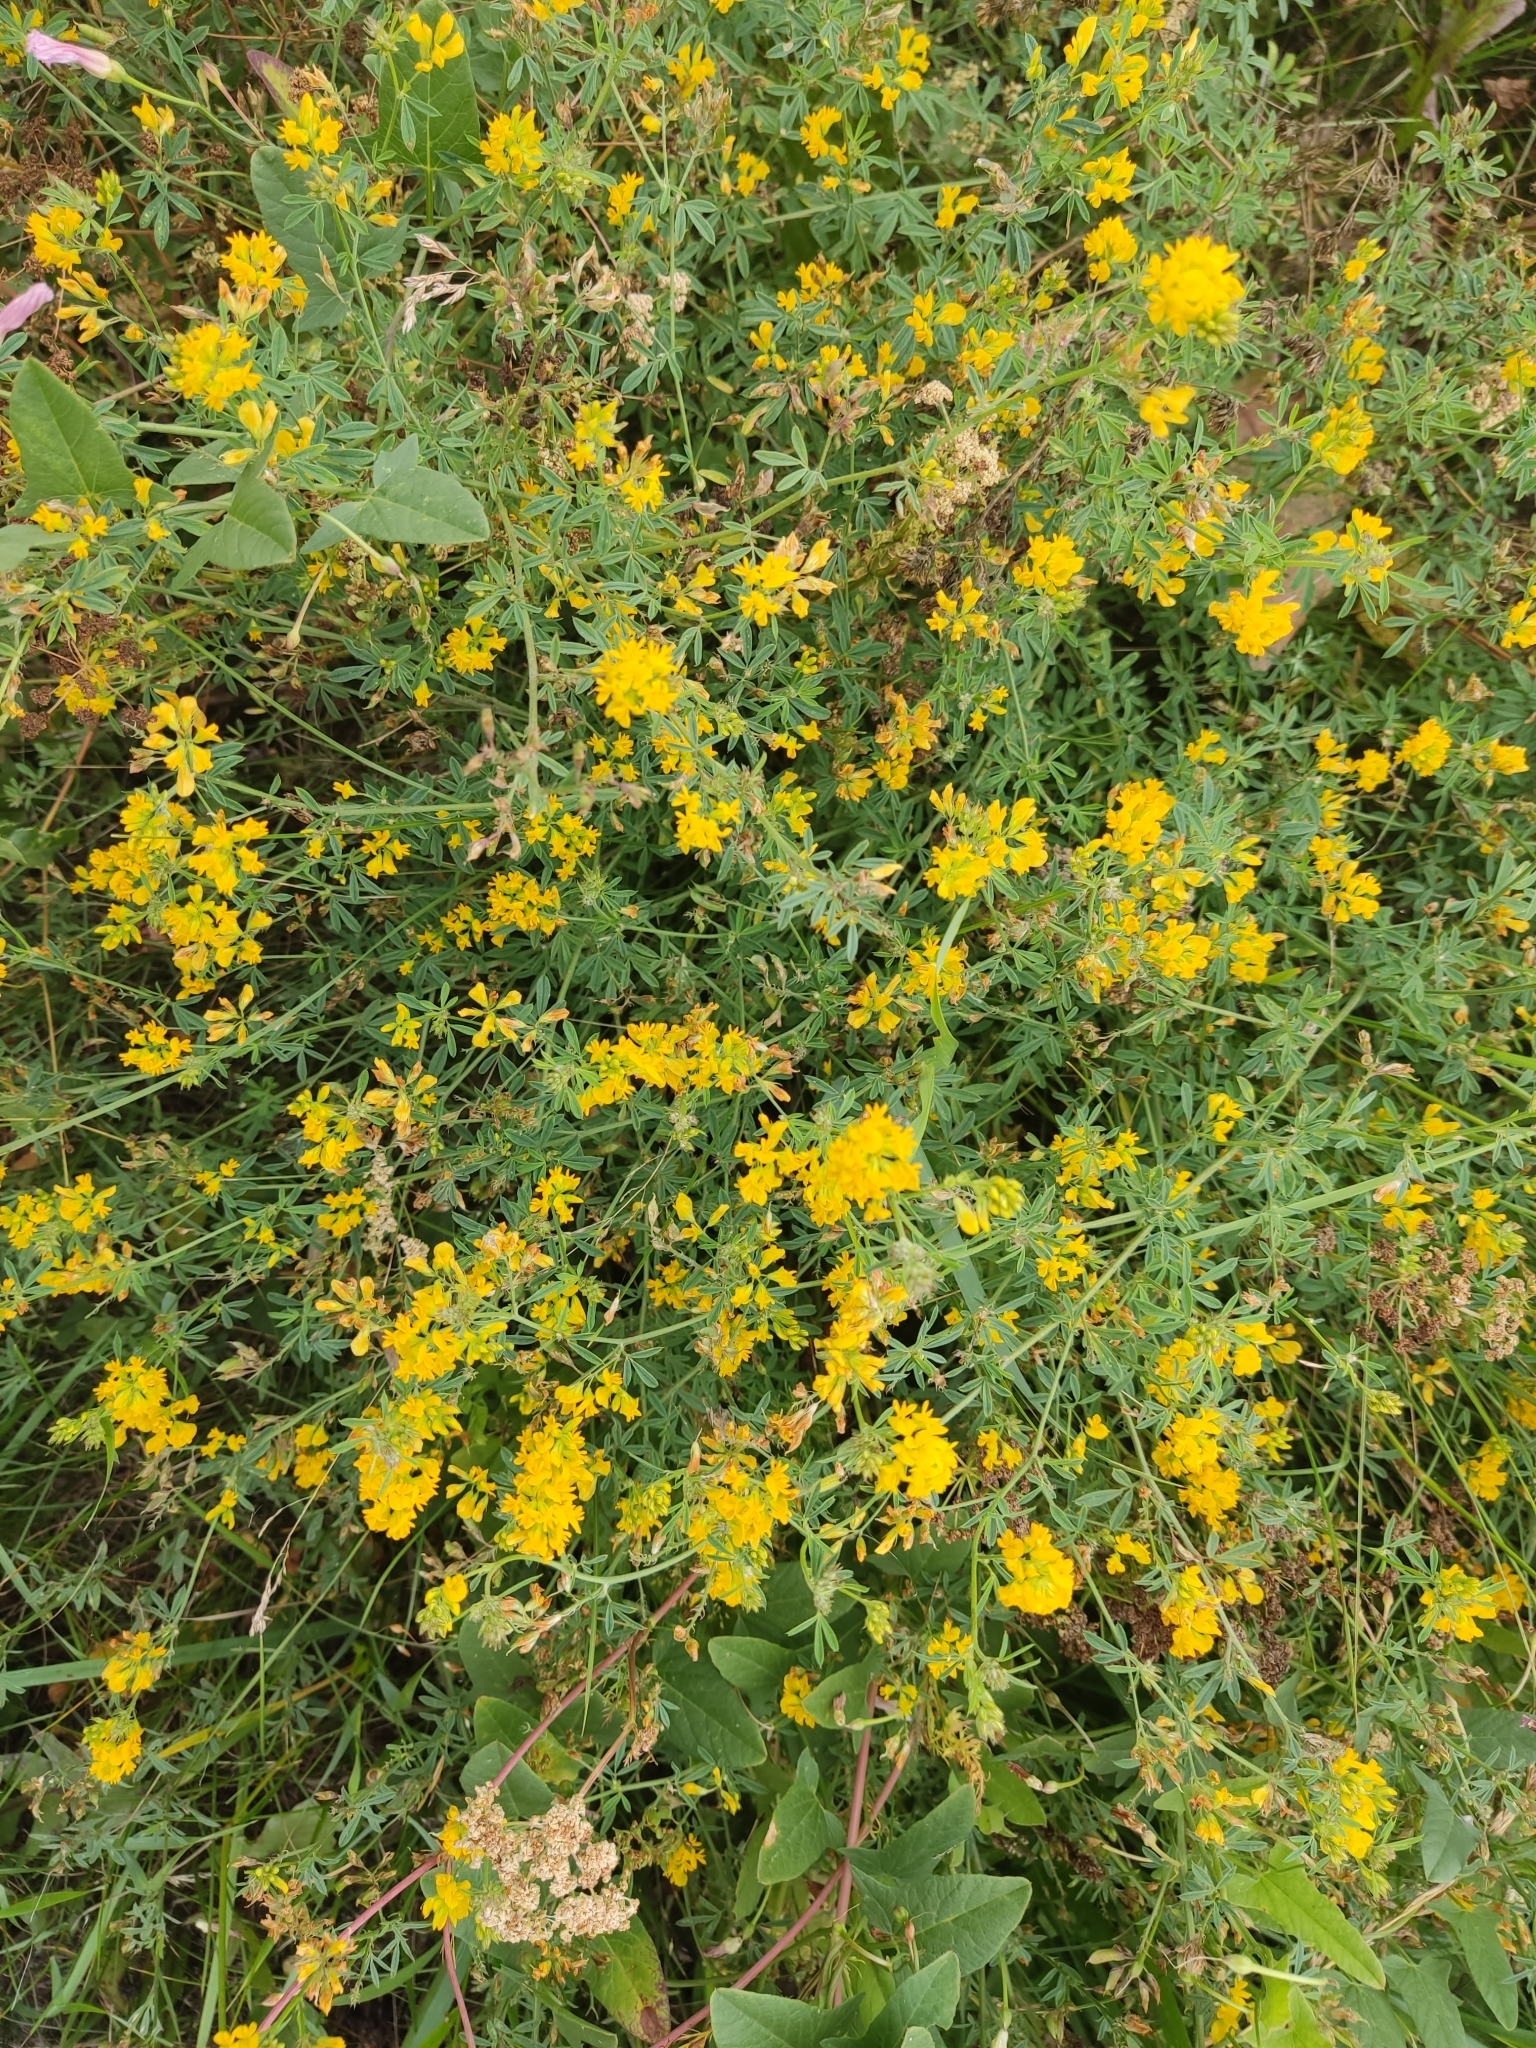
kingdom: Plantae
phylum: Tracheophyta
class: Magnoliopsida
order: Fabales
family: Fabaceae
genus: Medicago
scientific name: Medicago falcata
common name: Sickle medick
